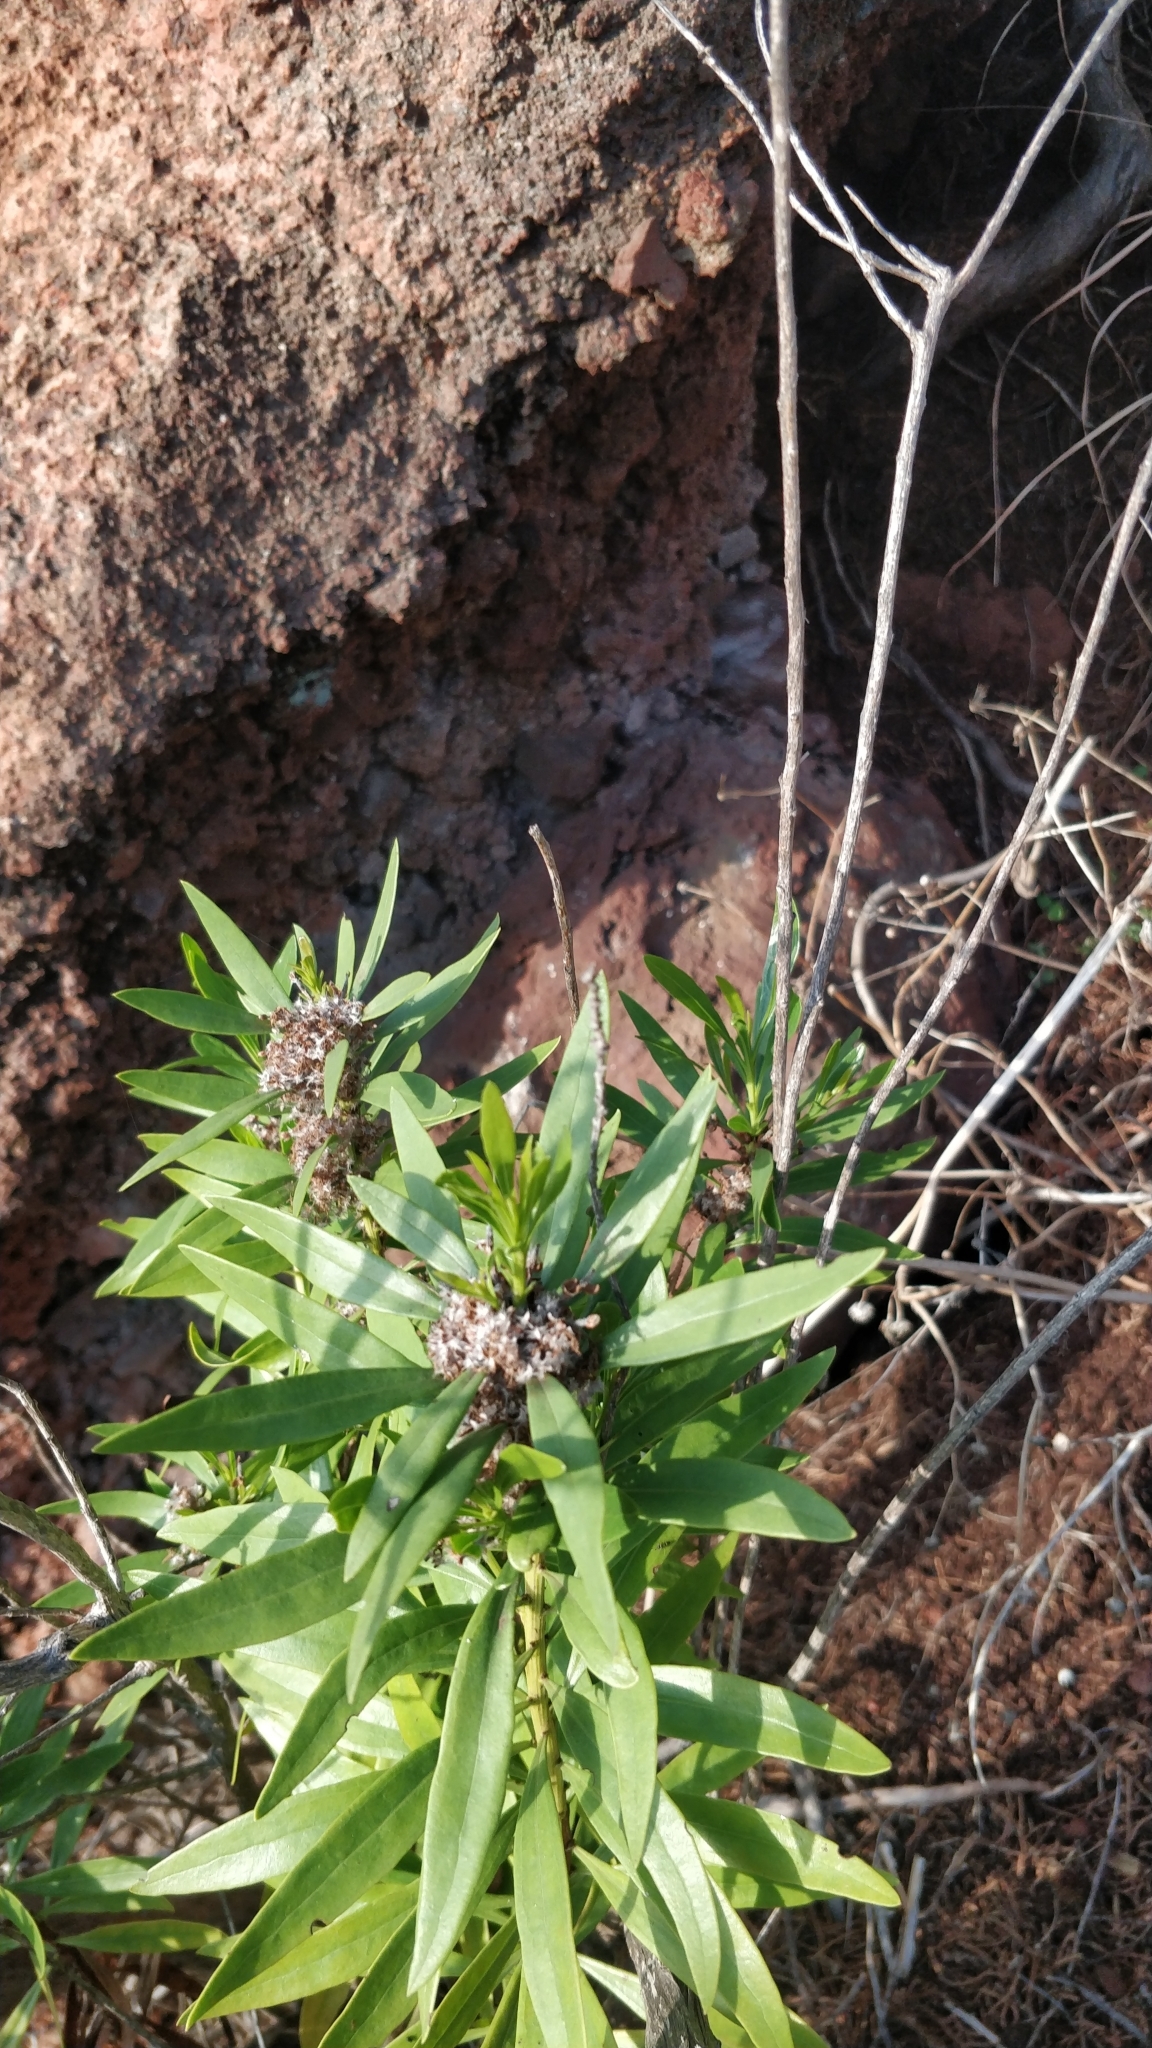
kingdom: Plantae
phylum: Tracheophyta
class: Magnoliopsida
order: Lamiales
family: Plantaginaceae
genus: Globularia
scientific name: Globularia salicina
